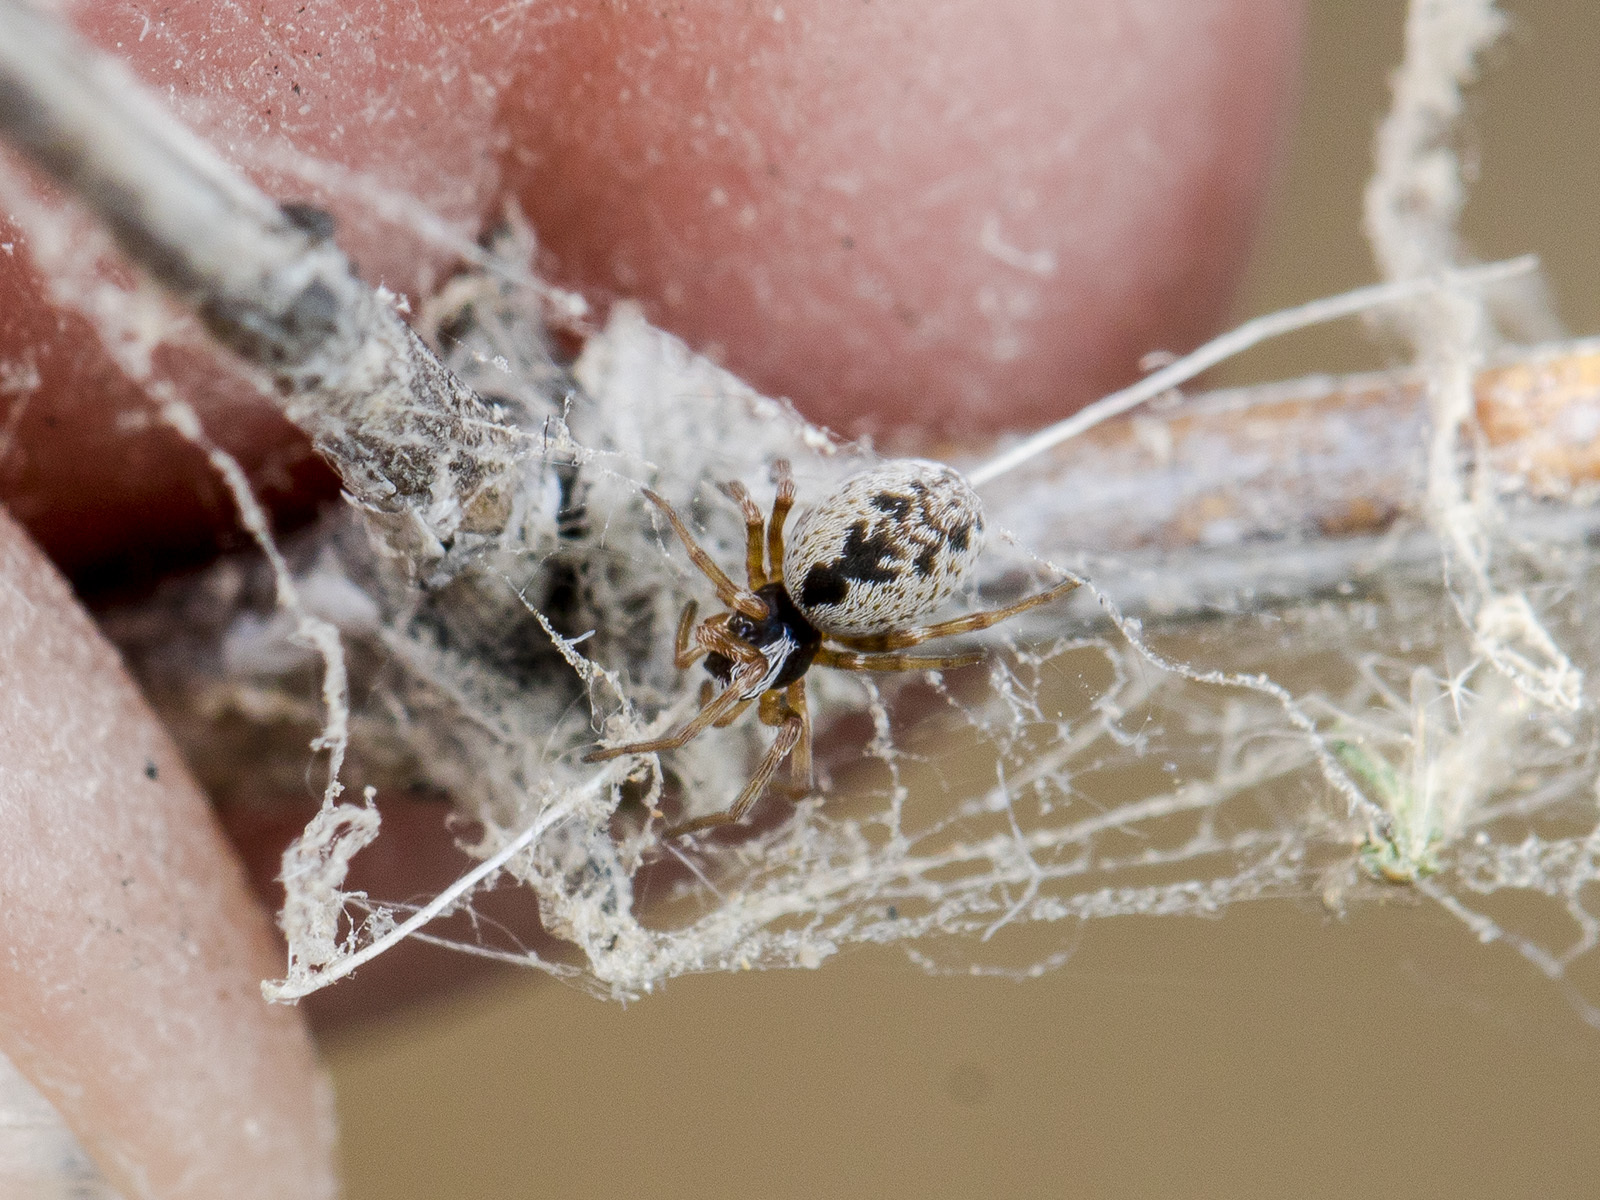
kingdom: Animalia
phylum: Arthropoda
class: Arachnida
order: Araneae
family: Dictynidae
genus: Archaeodictyna
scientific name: Archaeodictyna consecuta
